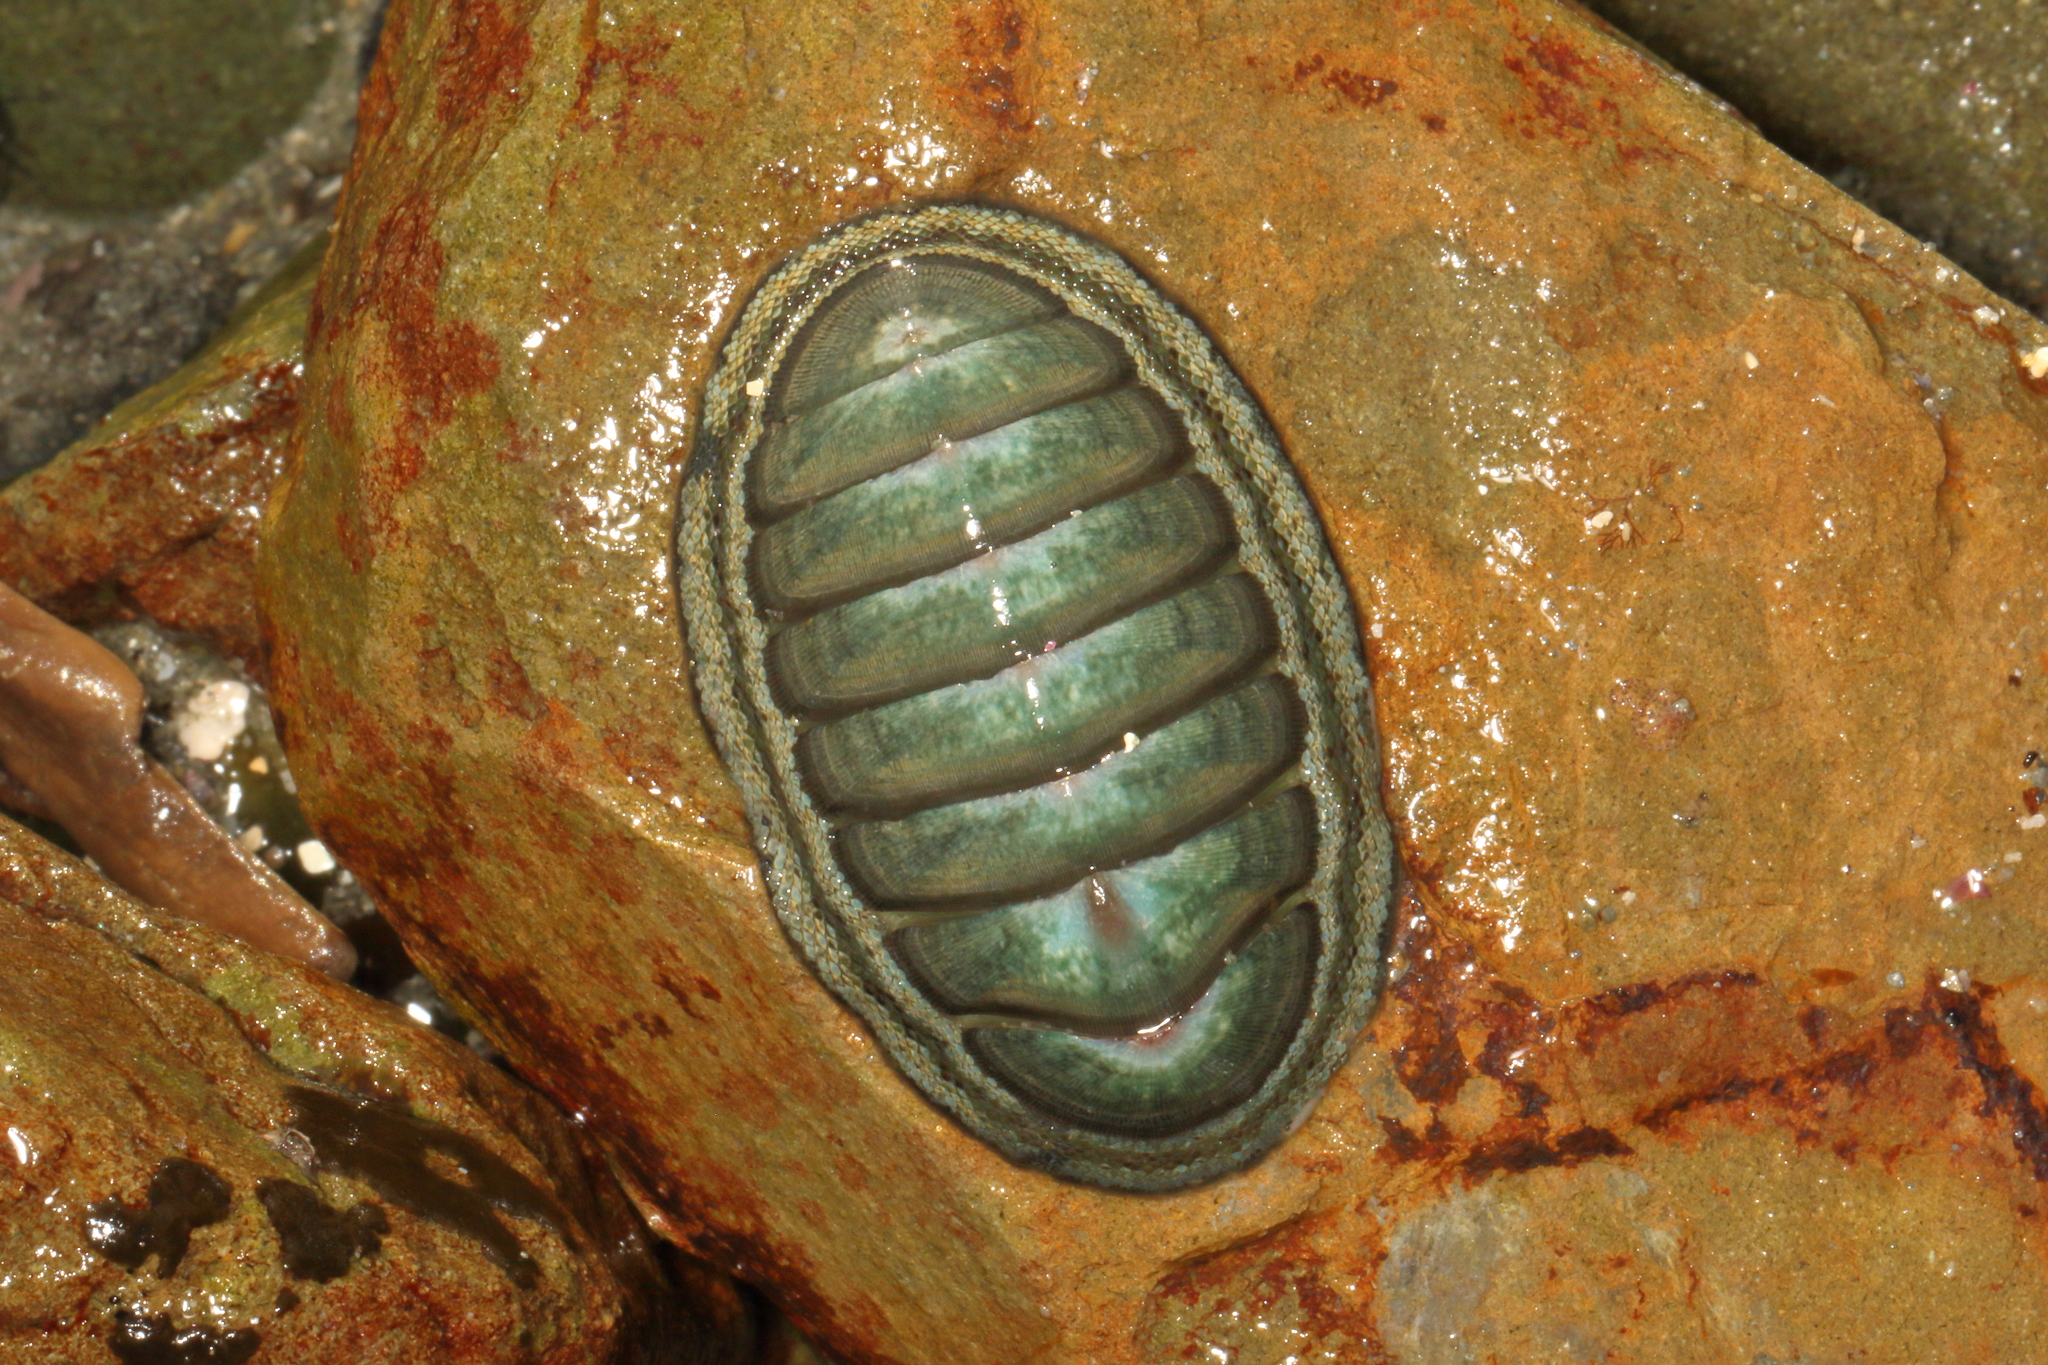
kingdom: Animalia
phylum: Mollusca
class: Polyplacophora
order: Chitonida
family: Chitonidae
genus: Chiton
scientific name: Chiton glaucus
